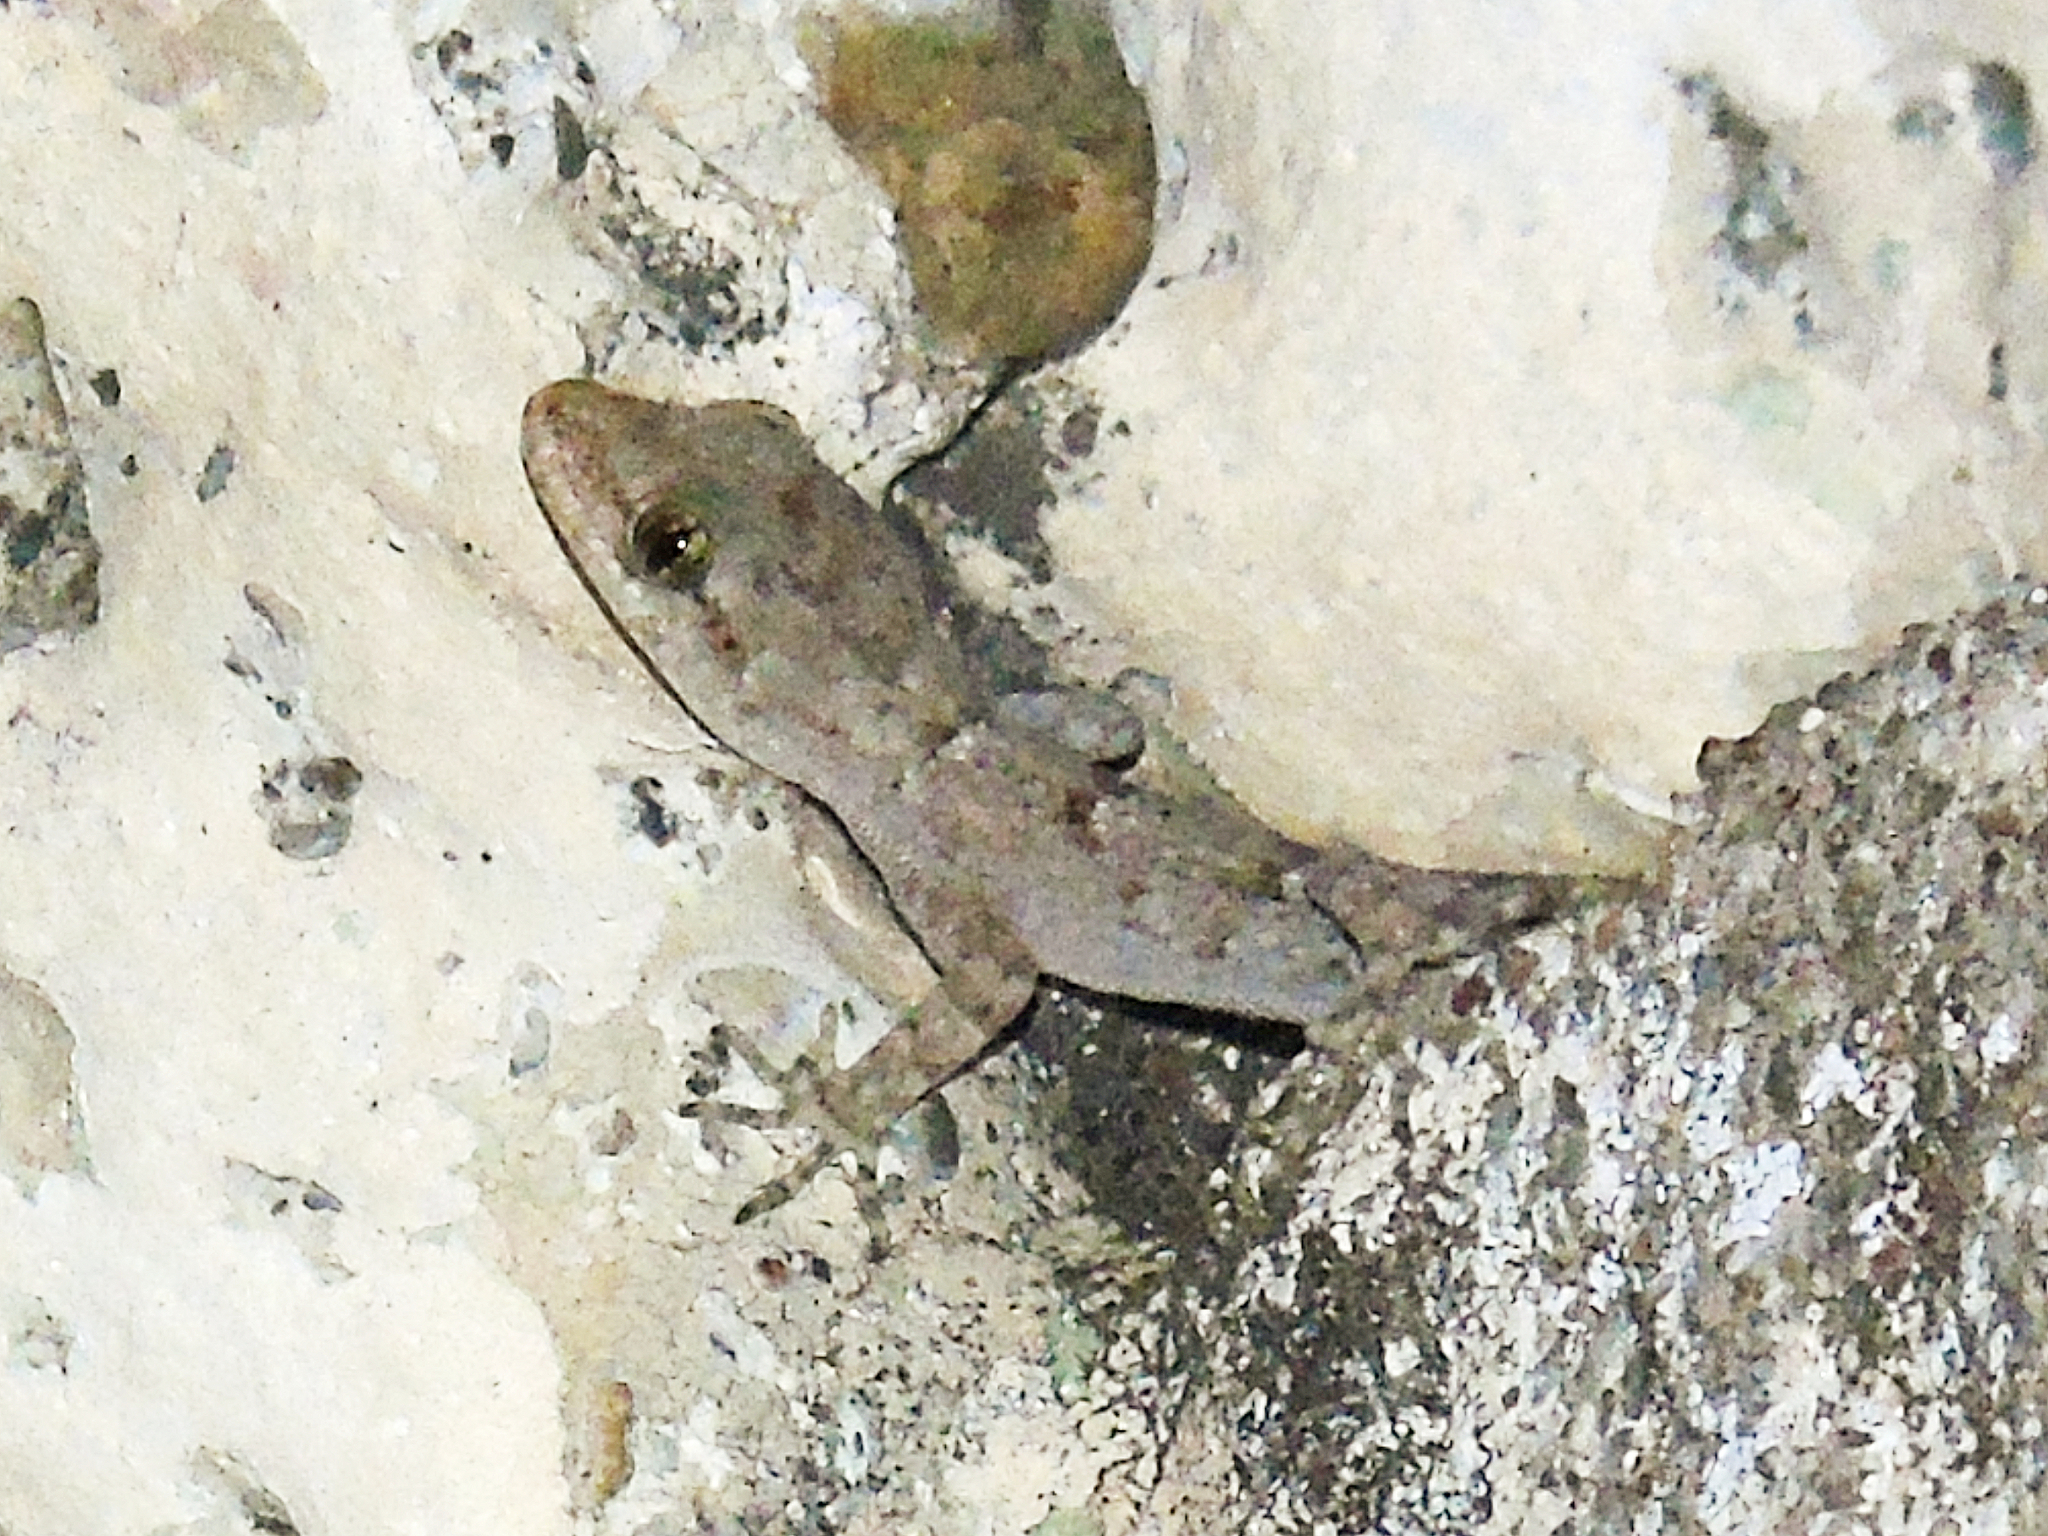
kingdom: Animalia
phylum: Chordata
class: Squamata
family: Gekkonidae
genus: Mediodactylus
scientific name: Mediodactylus kotschyi
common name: Kotschy's gecko
